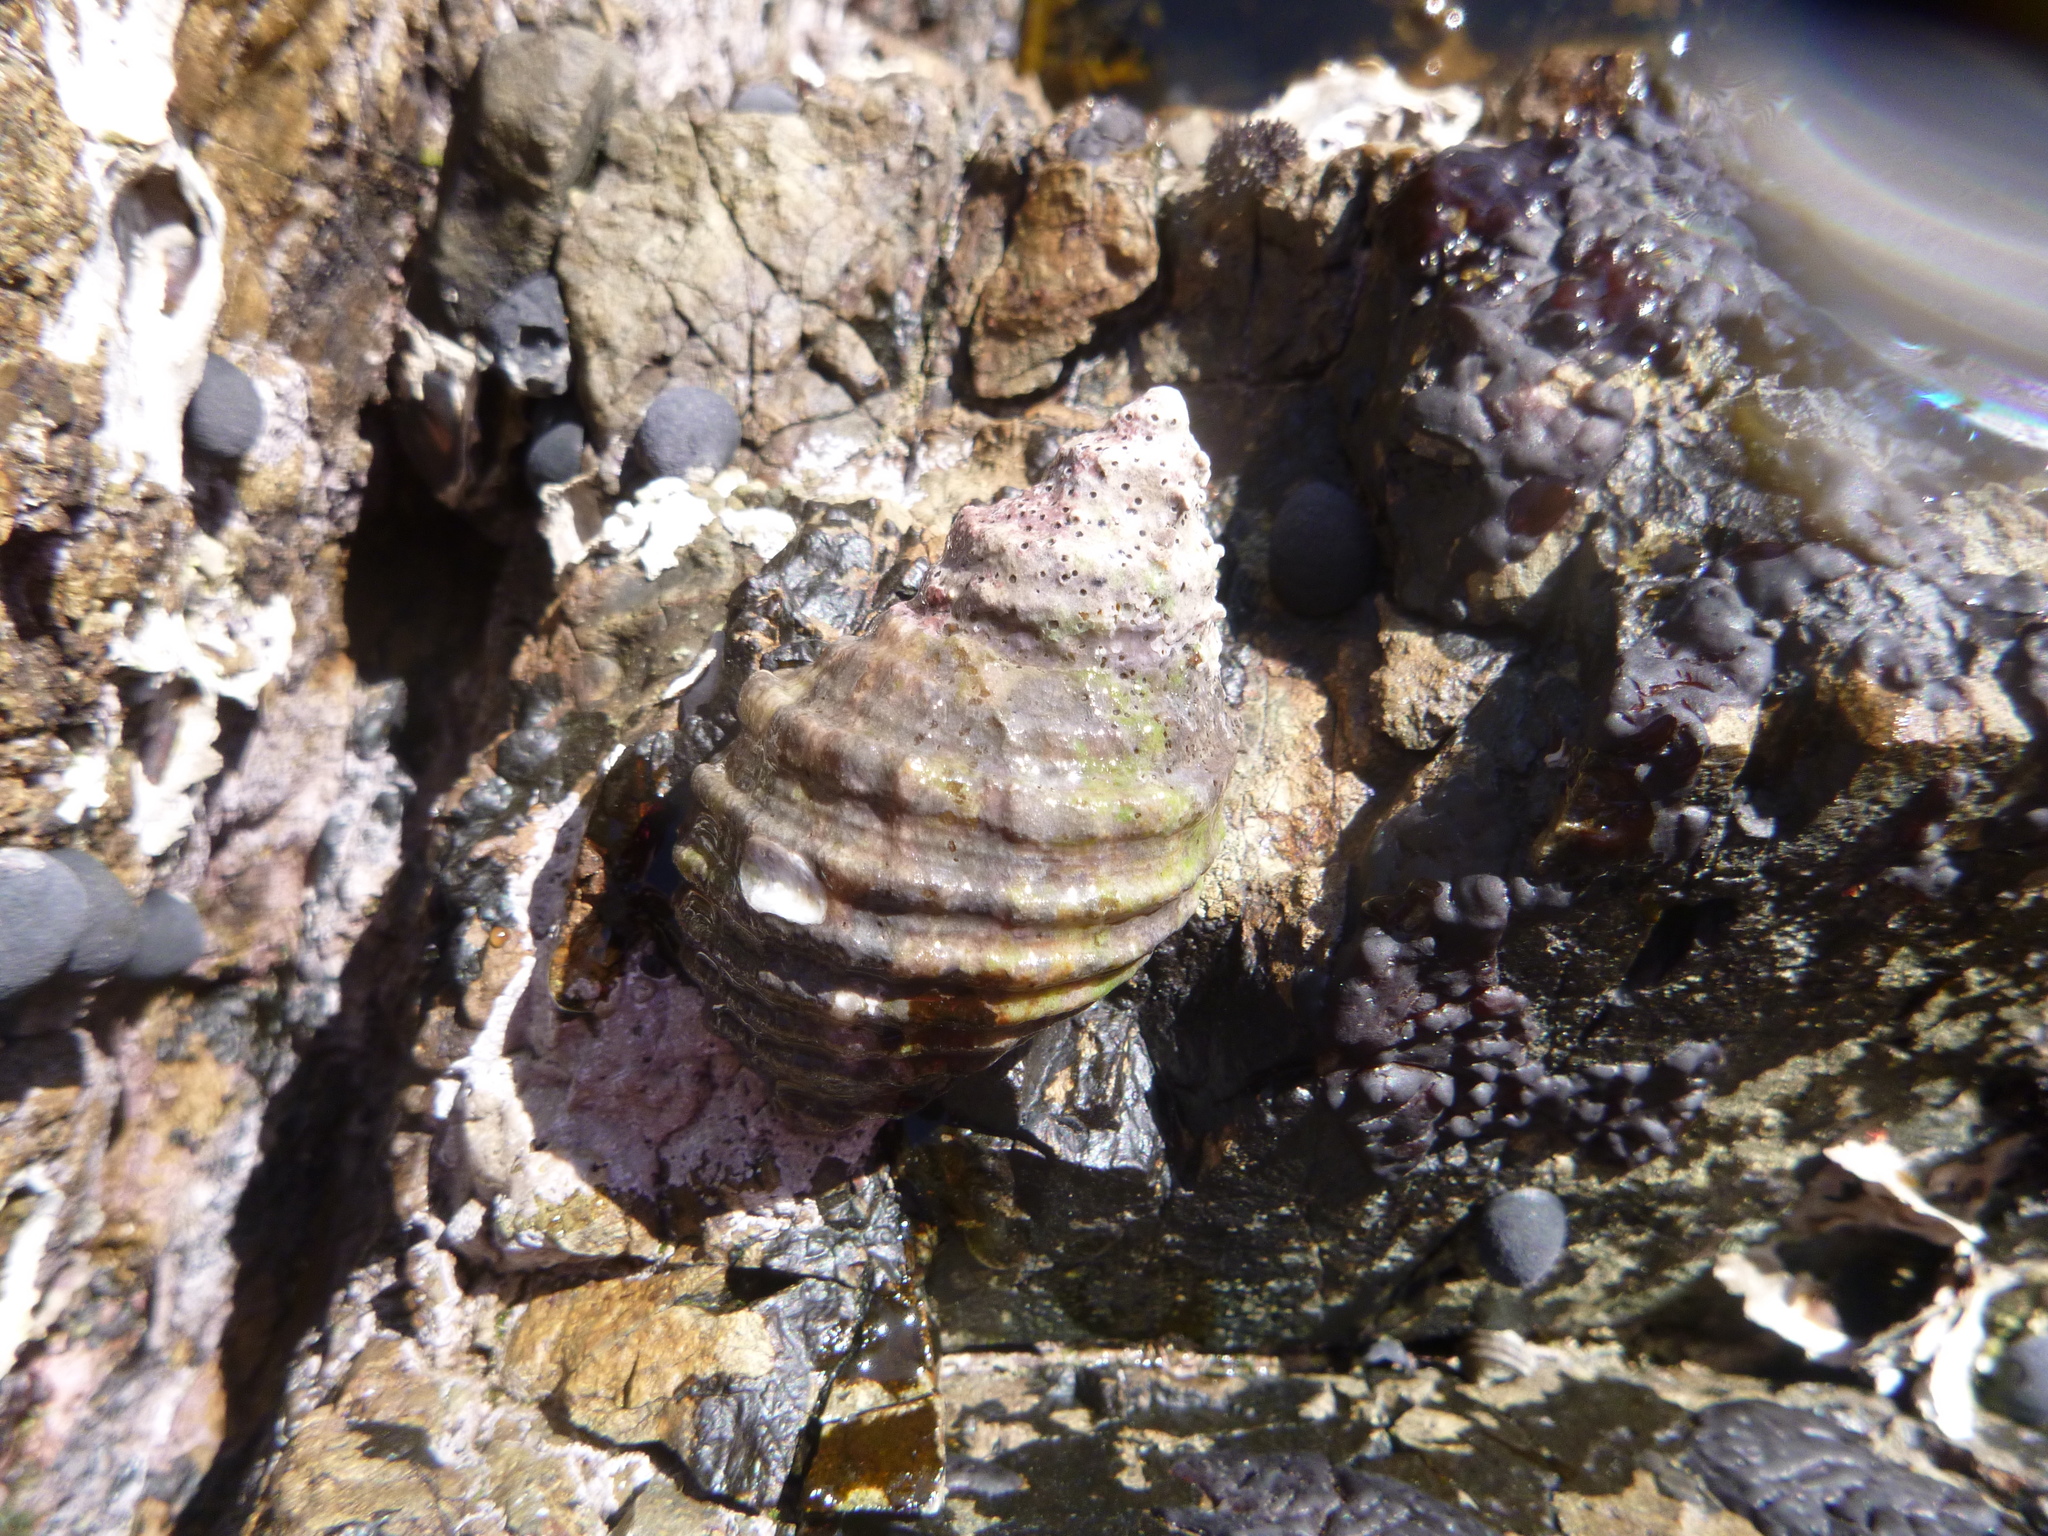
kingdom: Animalia
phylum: Mollusca
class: Gastropoda
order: Neogastropoda
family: Muricidae
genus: Dicathais
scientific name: Dicathais orbita
